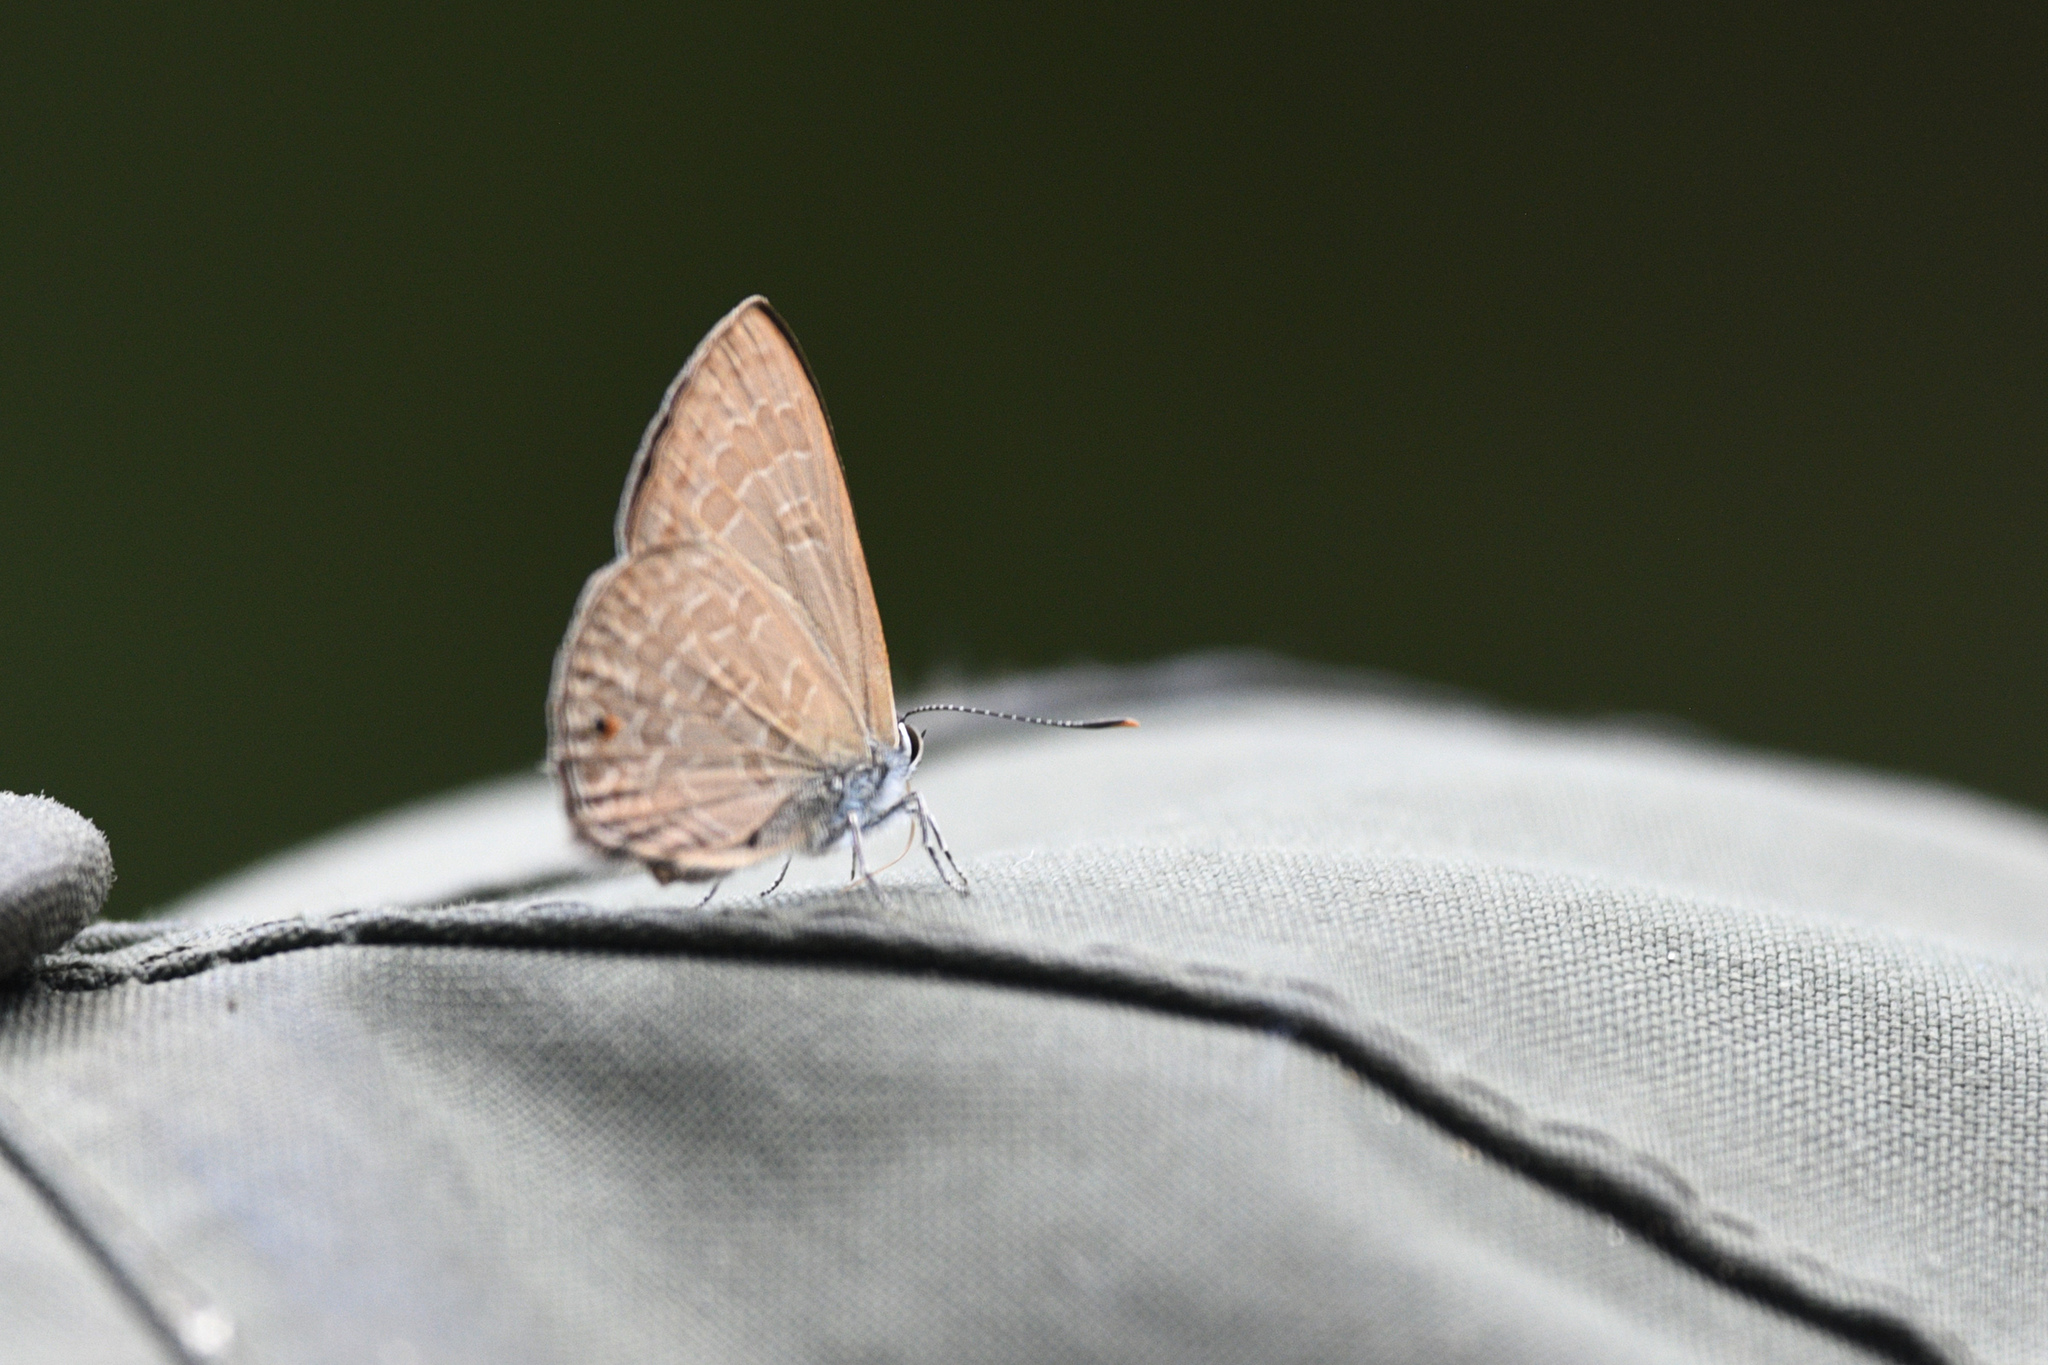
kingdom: Animalia
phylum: Arthropoda
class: Insecta
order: Lepidoptera
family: Lycaenidae
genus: Anthene
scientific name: Anthene emolus
